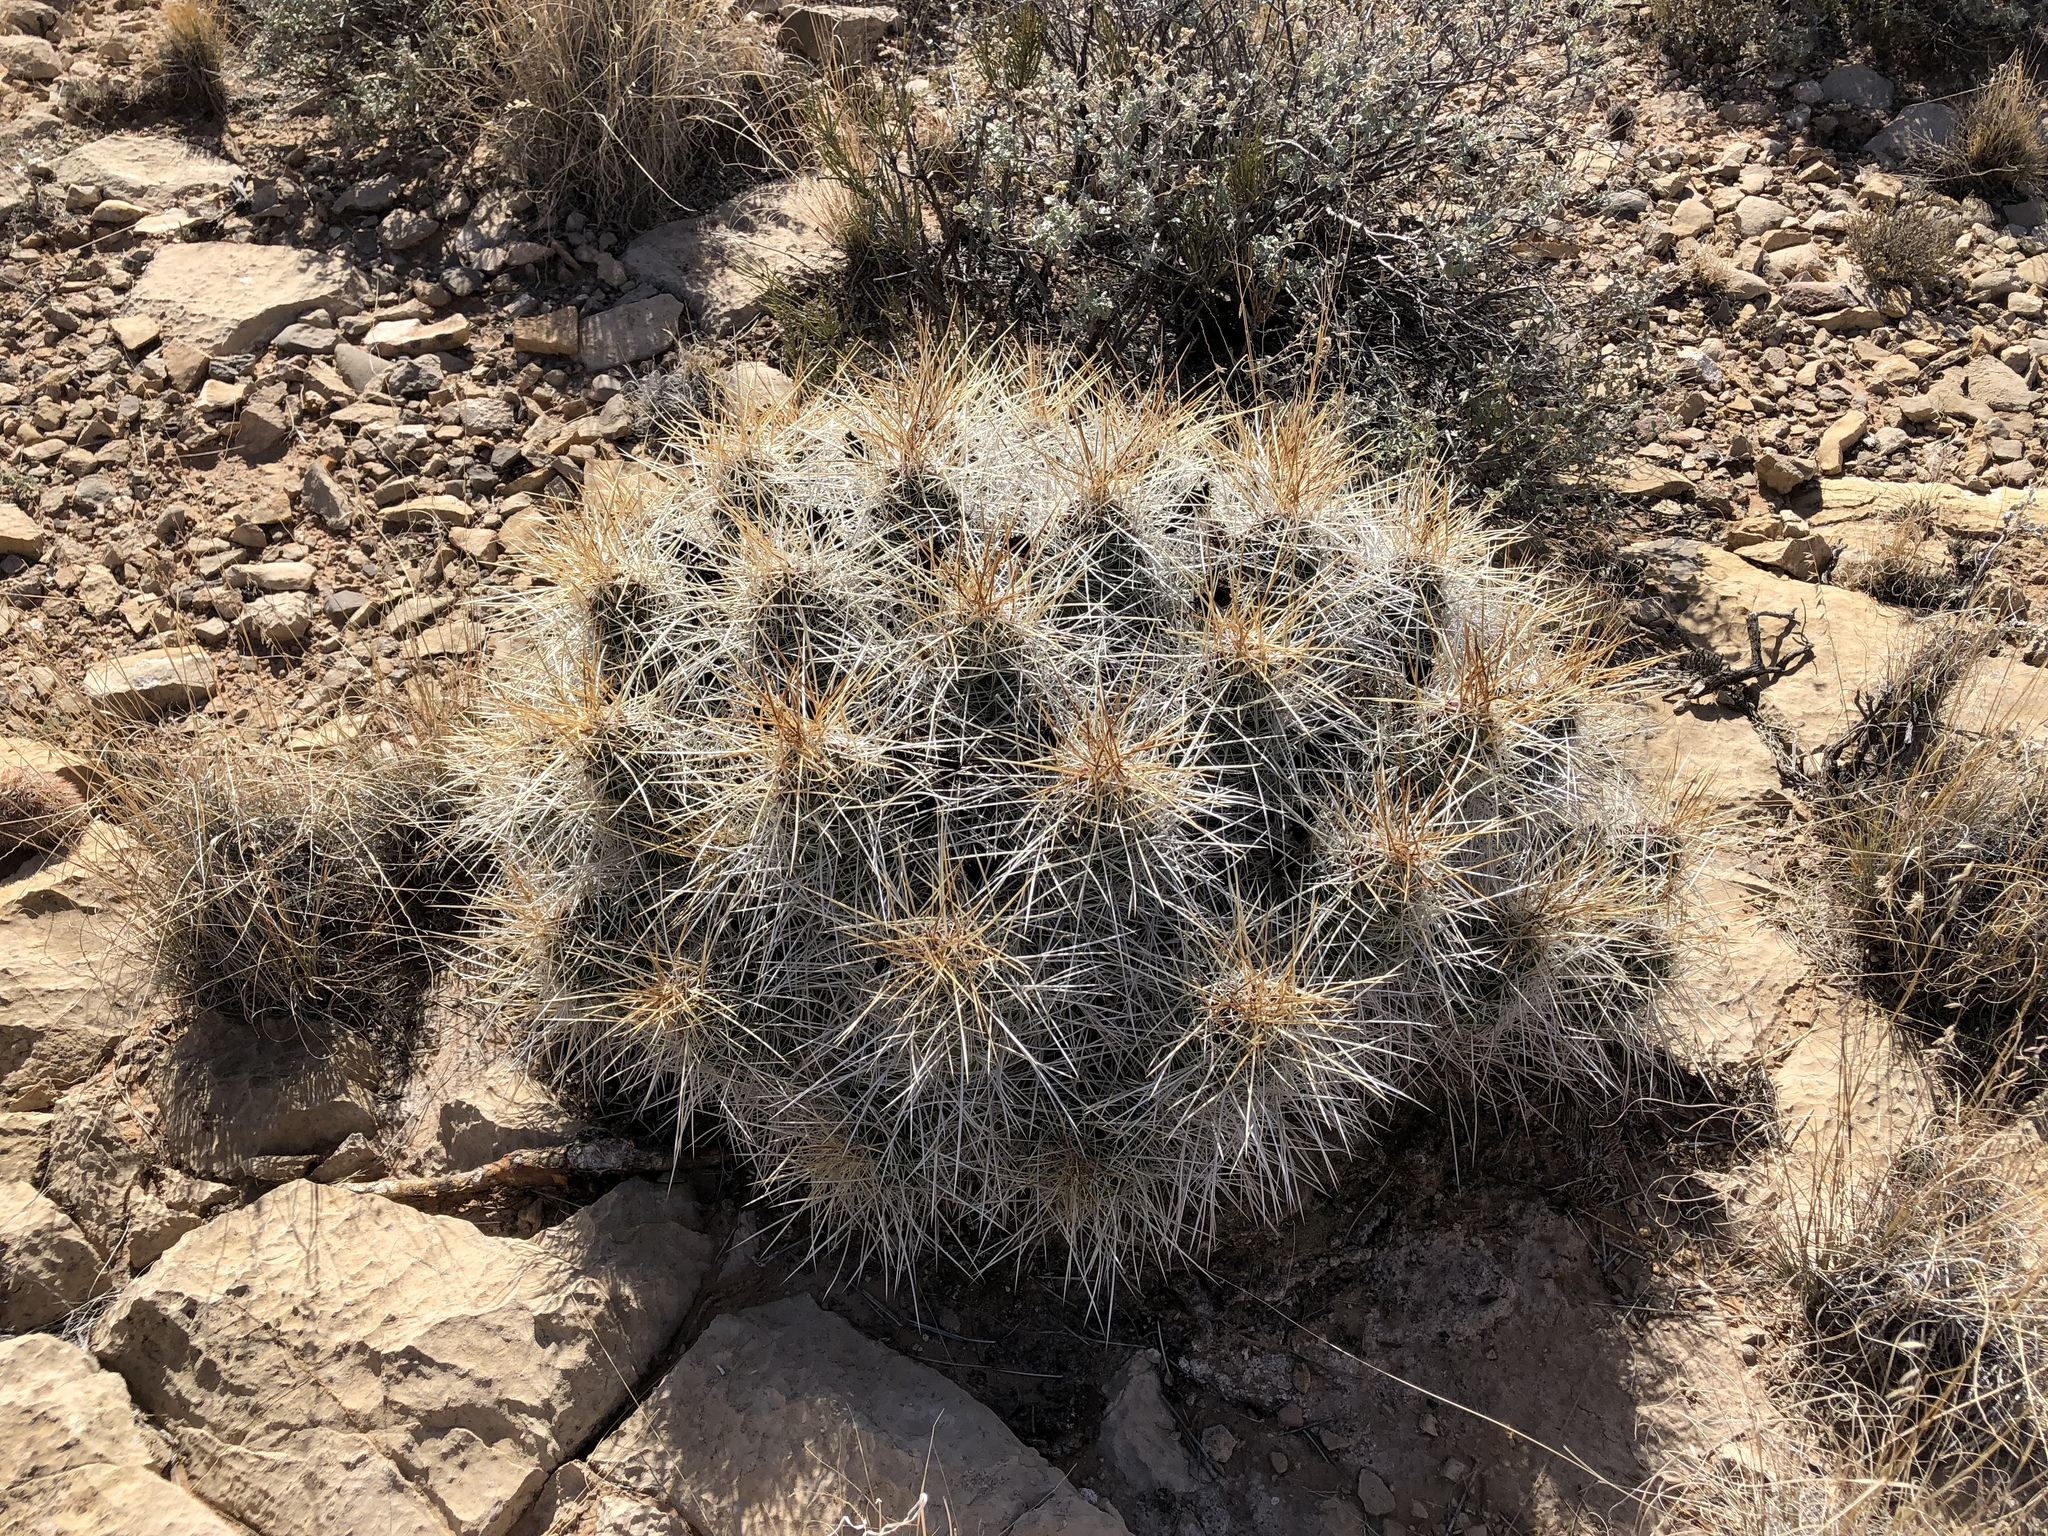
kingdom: Plantae
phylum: Tracheophyta
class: Magnoliopsida
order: Caryophyllales
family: Cactaceae
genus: Echinocereus
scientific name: Echinocereus stramineus
